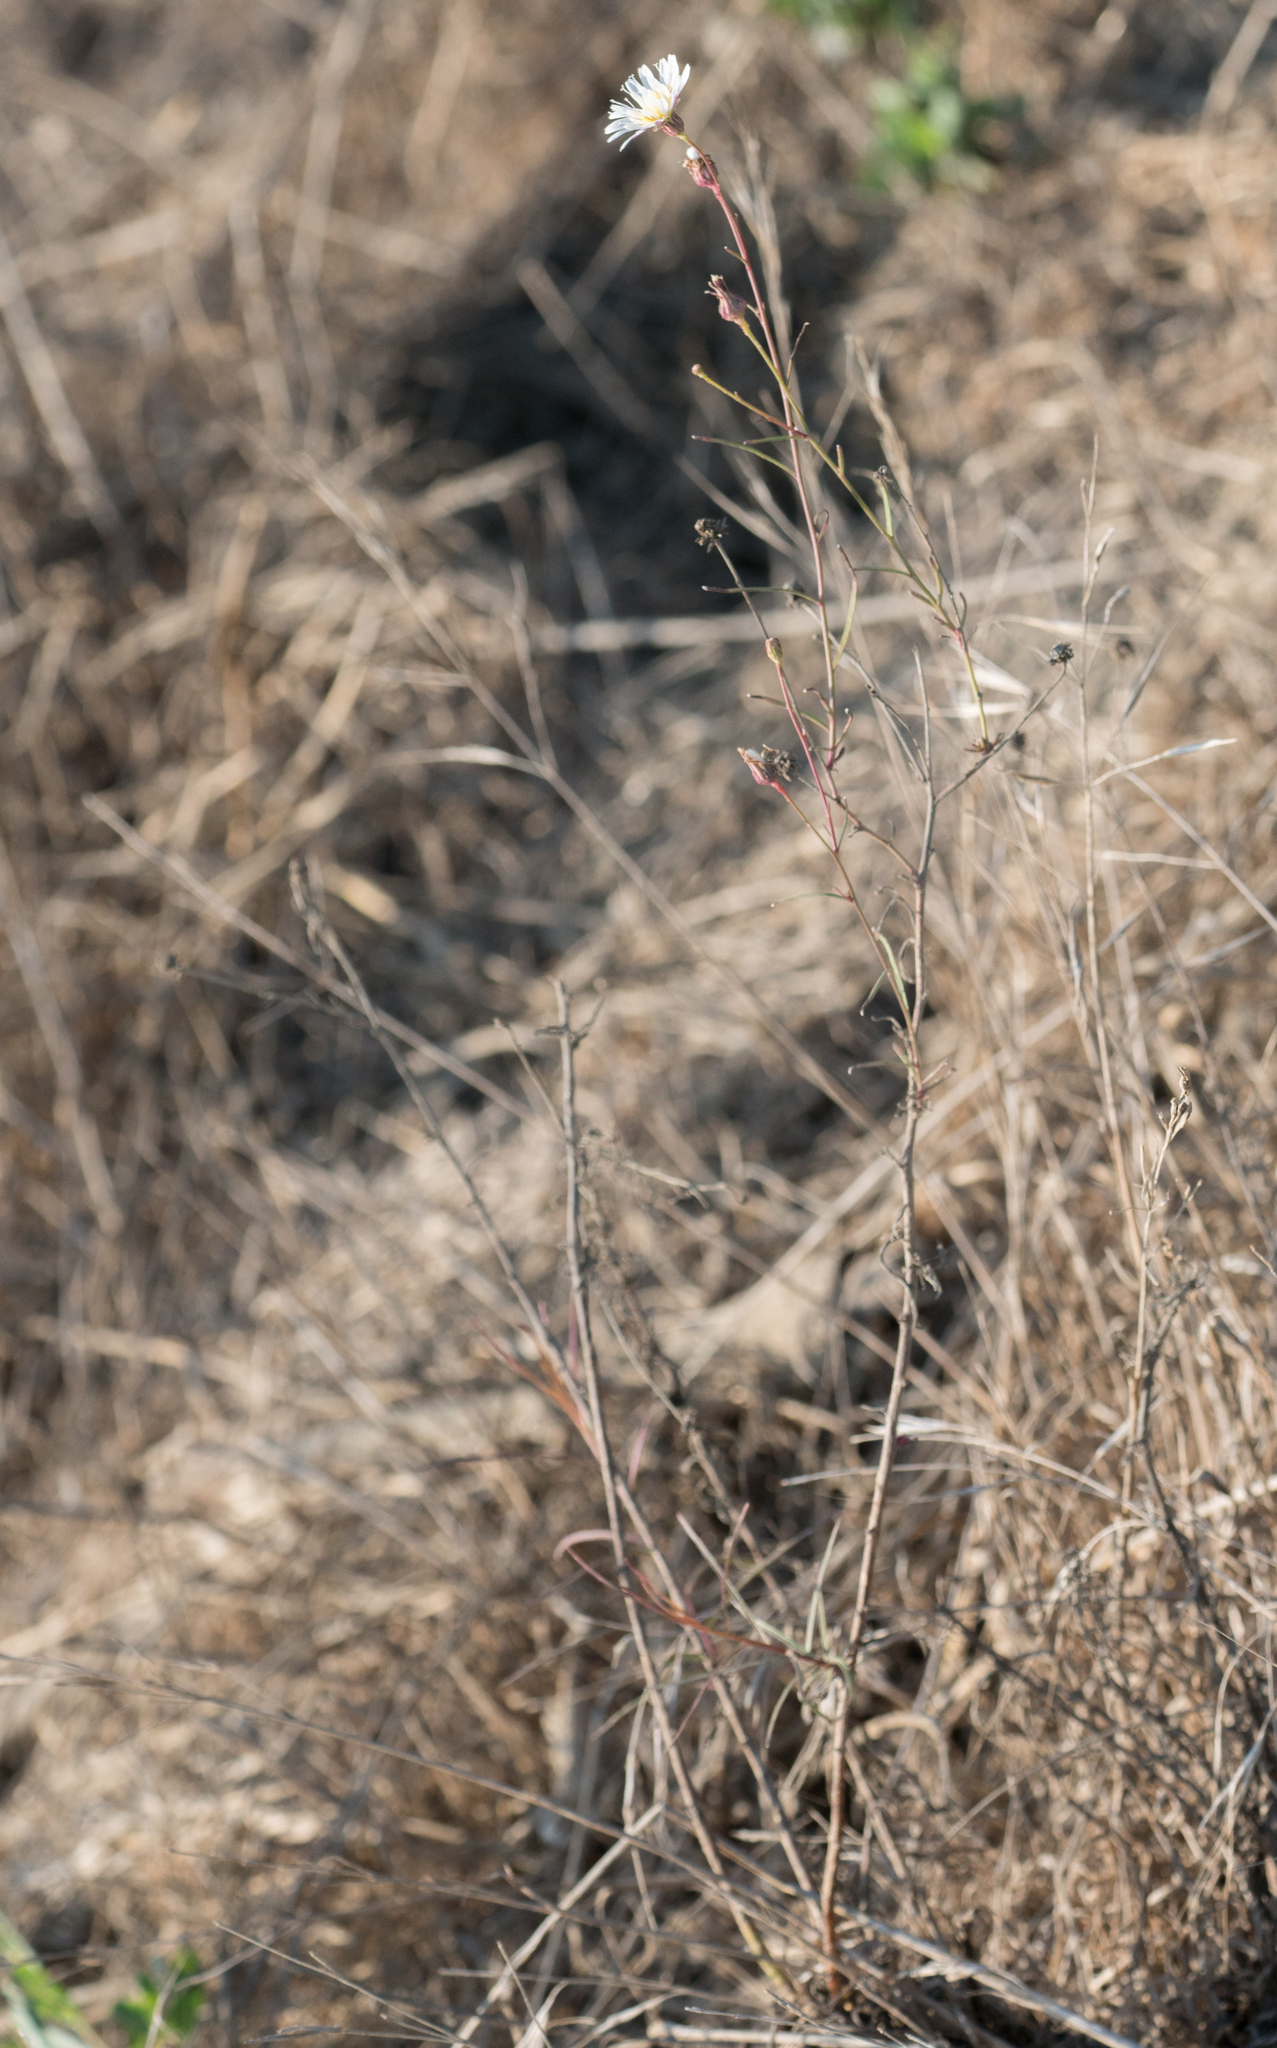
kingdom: Plantae
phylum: Tracheophyta
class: Magnoliopsida
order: Asterales
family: Asteraceae
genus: Malacothrix
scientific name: Malacothrix saxatilis
